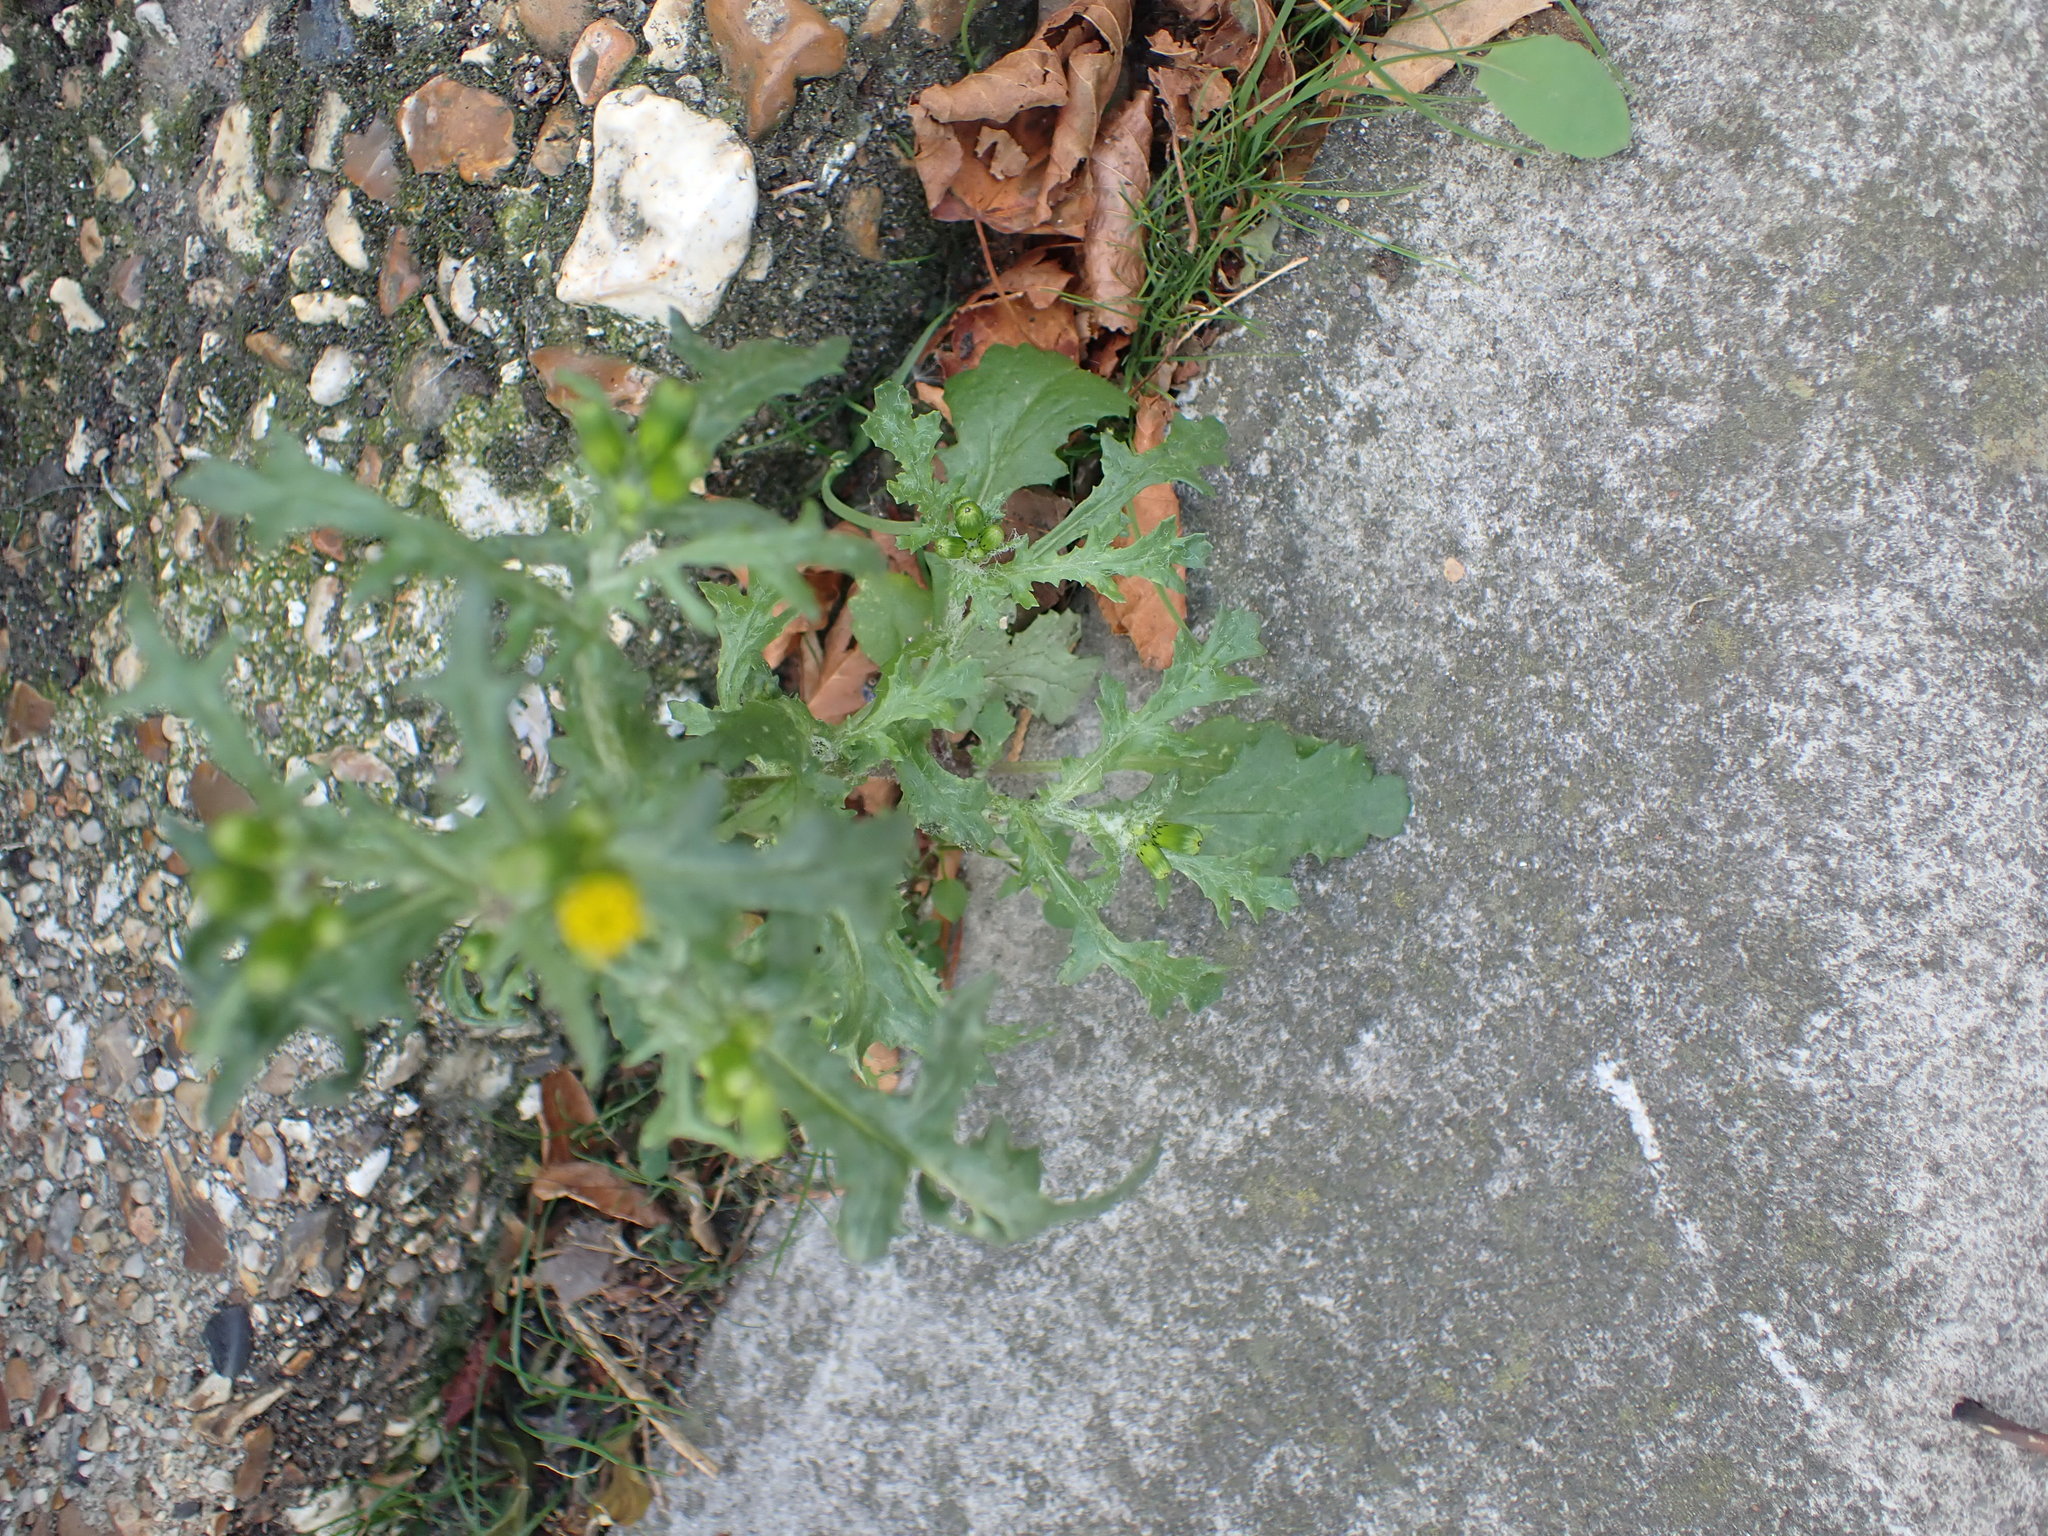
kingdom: Plantae
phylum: Tracheophyta
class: Magnoliopsida
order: Asterales
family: Asteraceae
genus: Senecio
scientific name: Senecio vulgaris
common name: Old-man-in-the-spring
